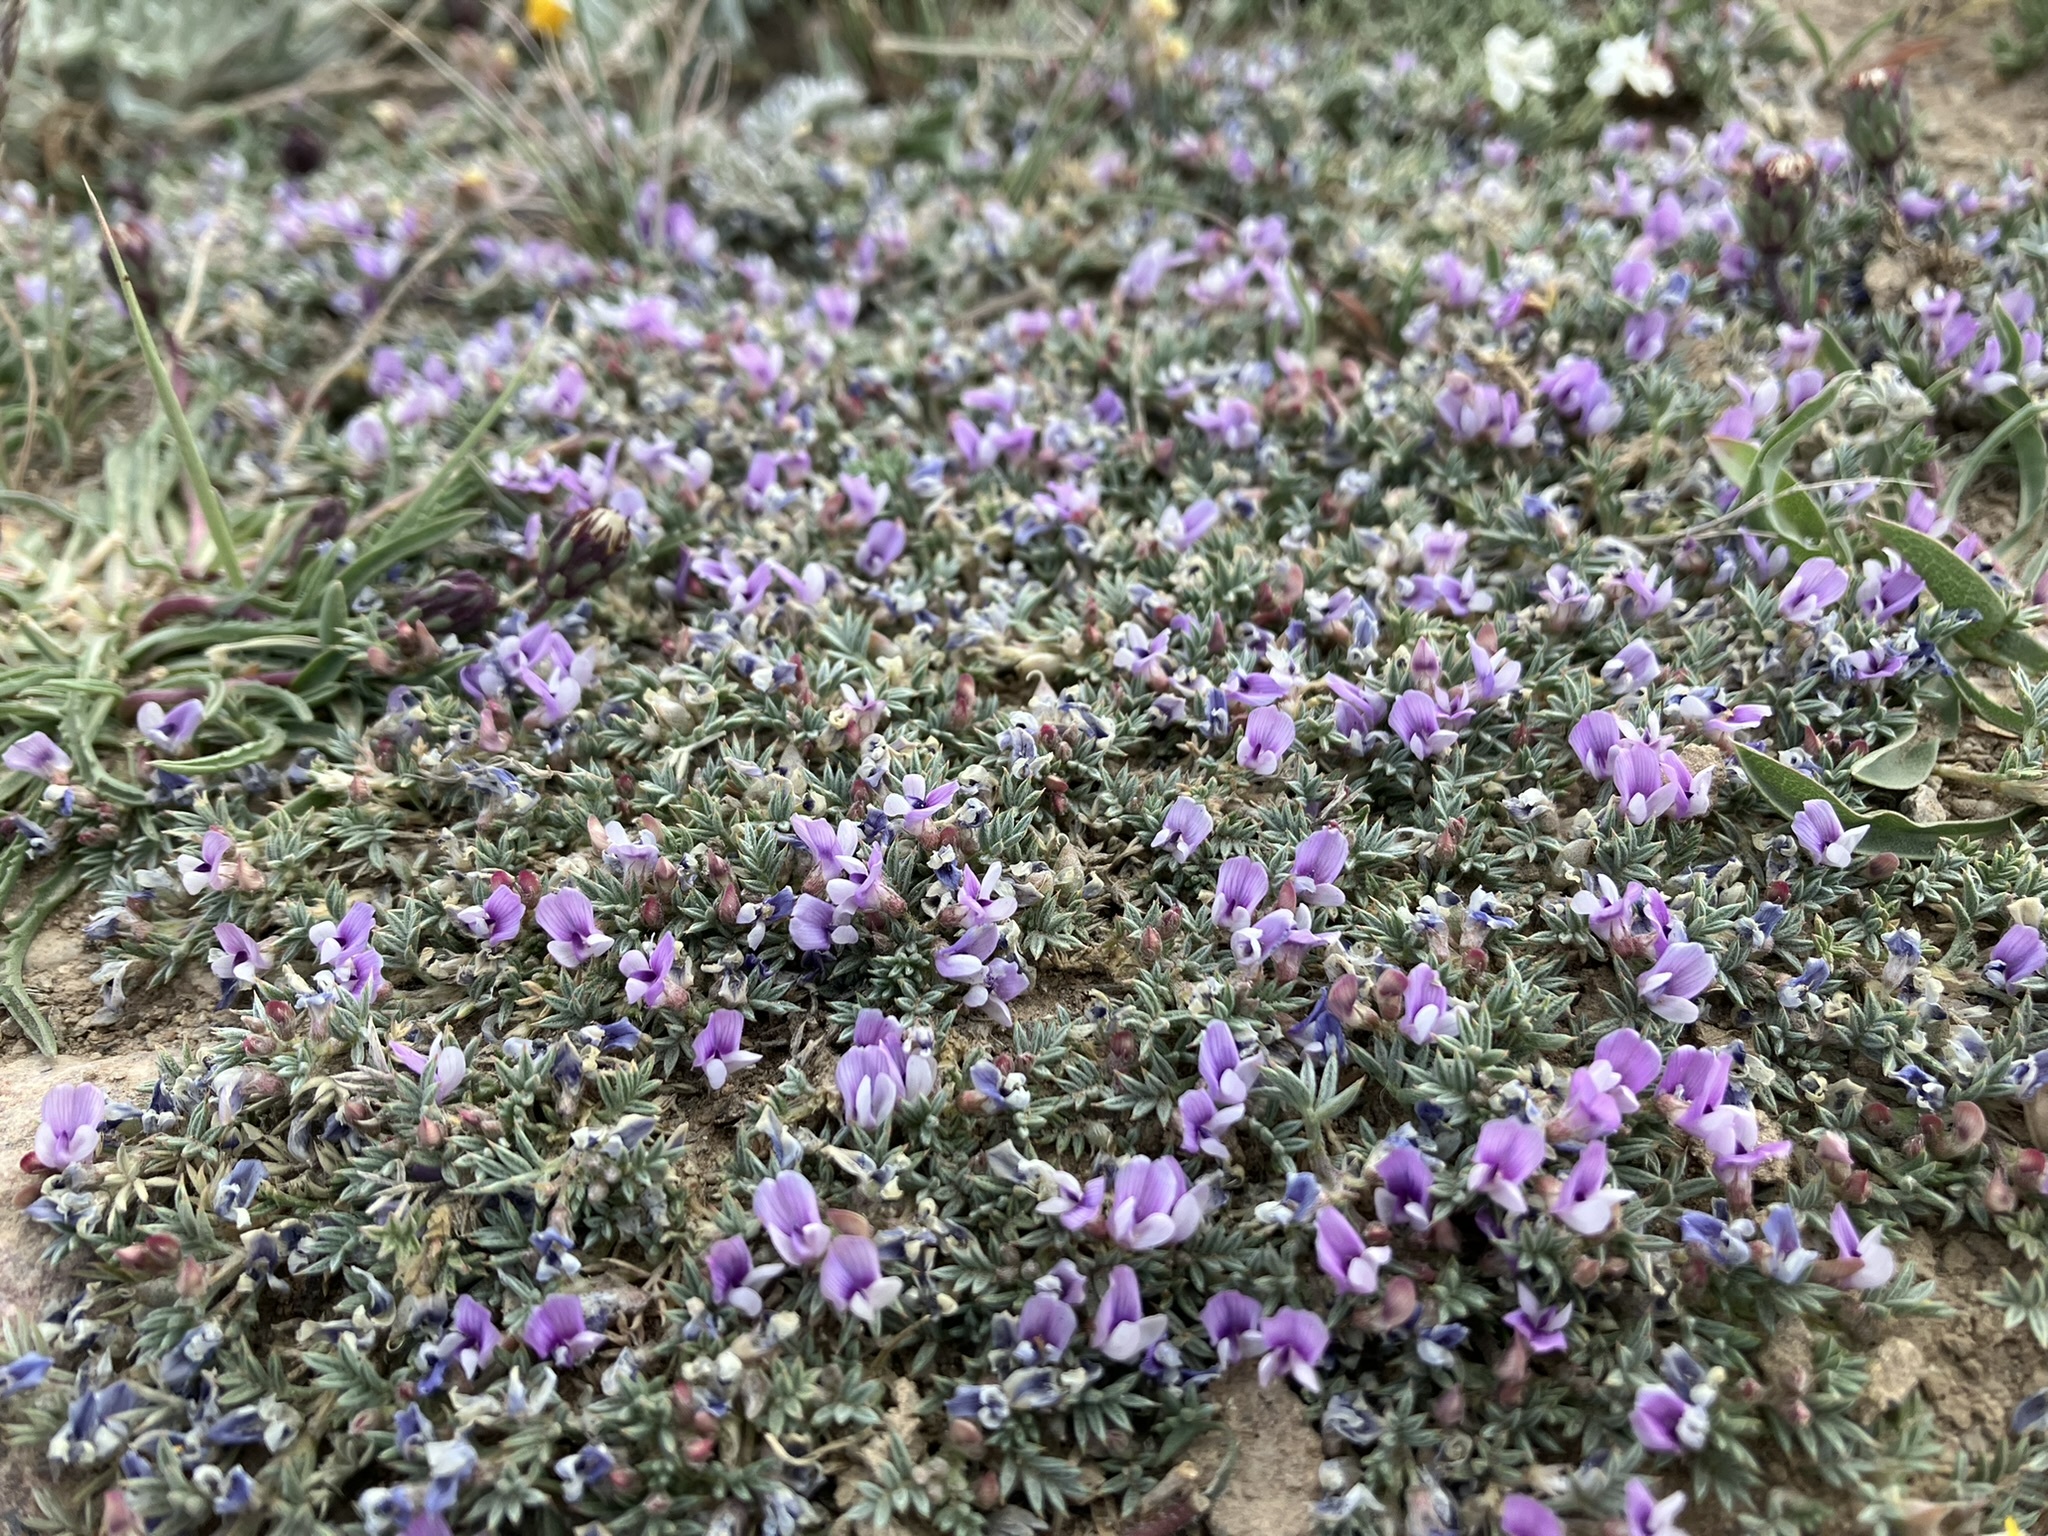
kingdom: Plantae
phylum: Tracheophyta
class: Magnoliopsida
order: Fabales
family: Fabaceae
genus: Astragalus
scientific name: Astragalus kentrophyta
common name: Prickly milk-vetch
